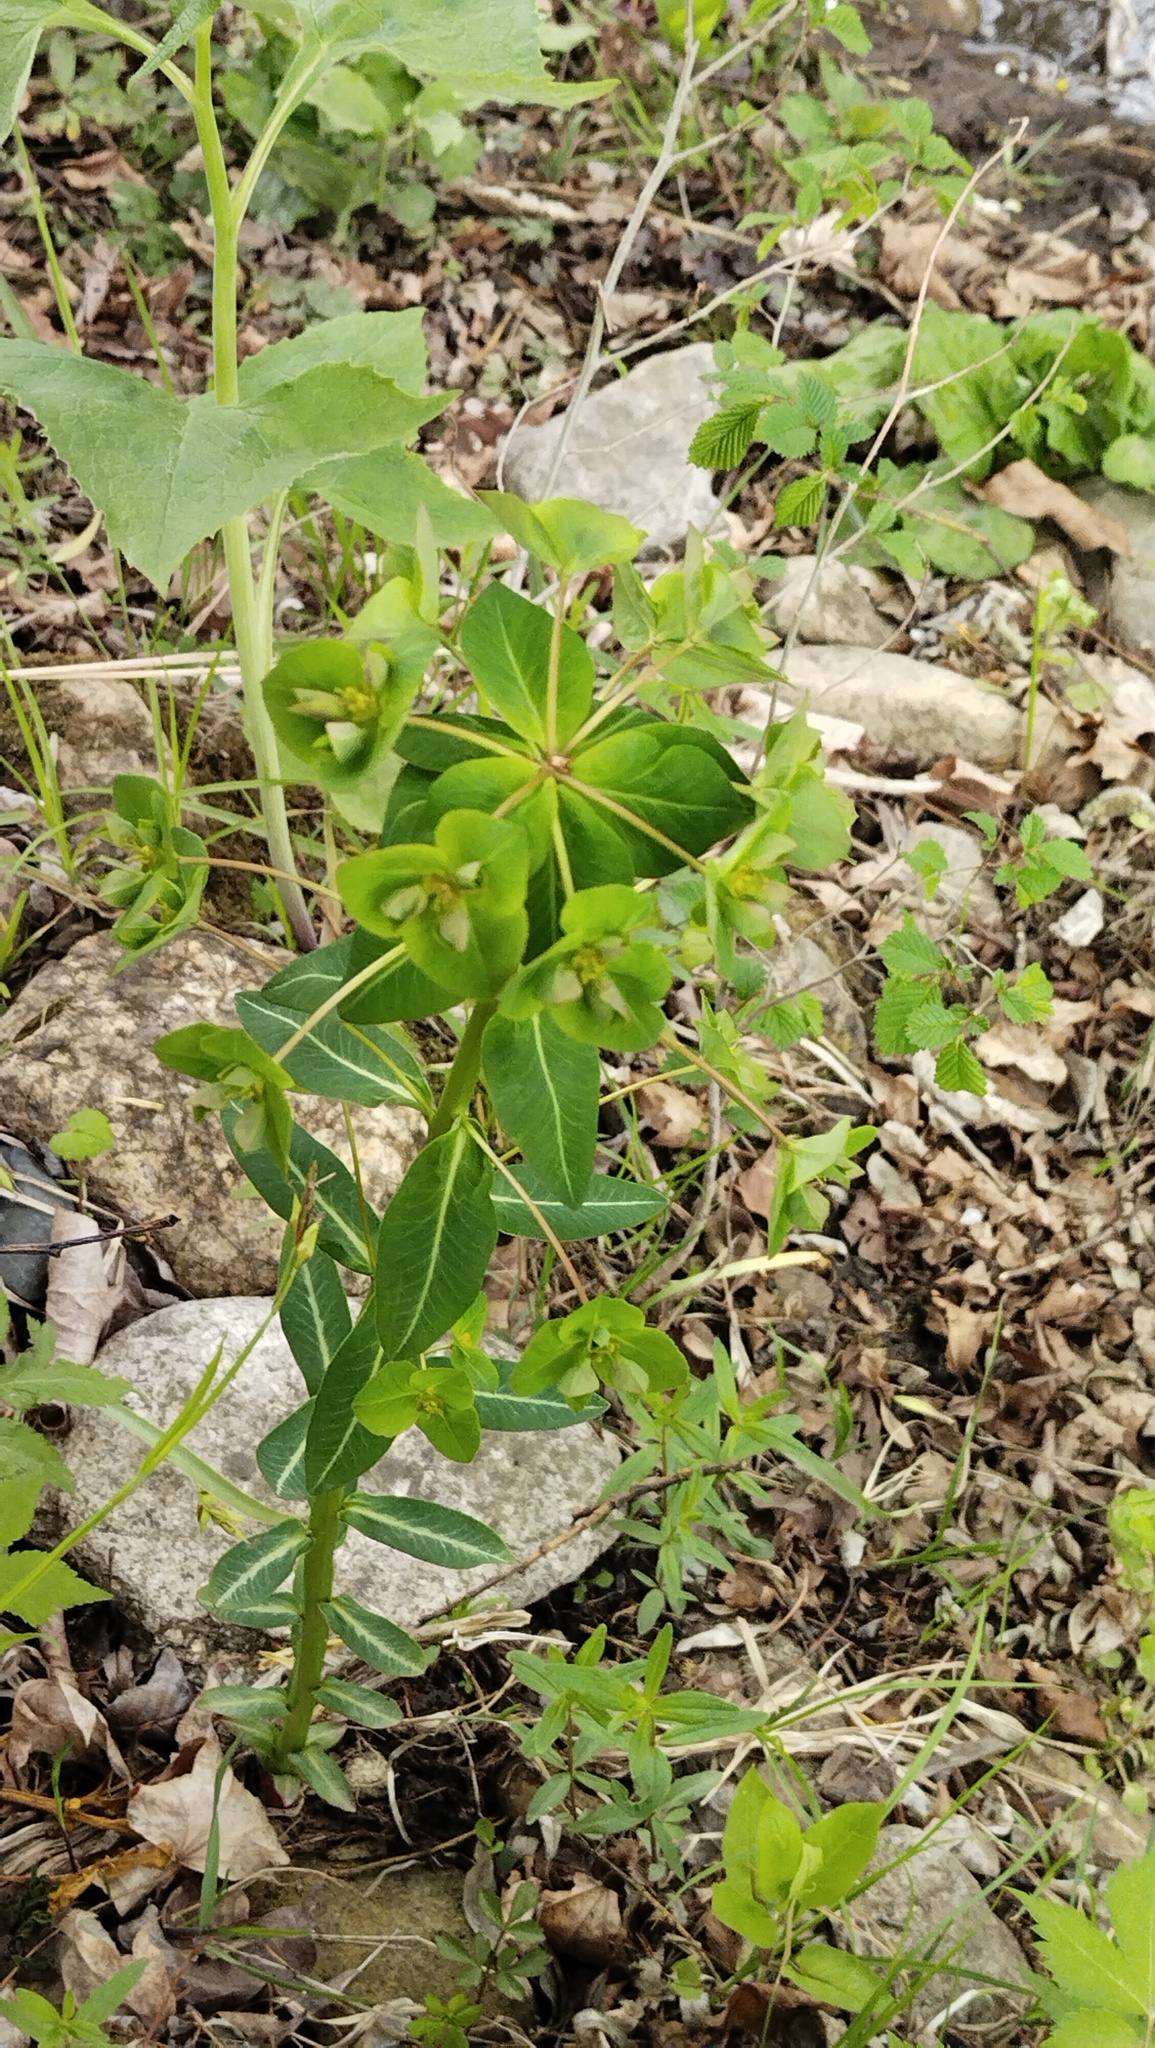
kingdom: Plantae
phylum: Tracheophyta
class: Magnoliopsida
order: Malpighiales
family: Euphorbiaceae
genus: Euphorbia
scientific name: Euphorbia lucorum
